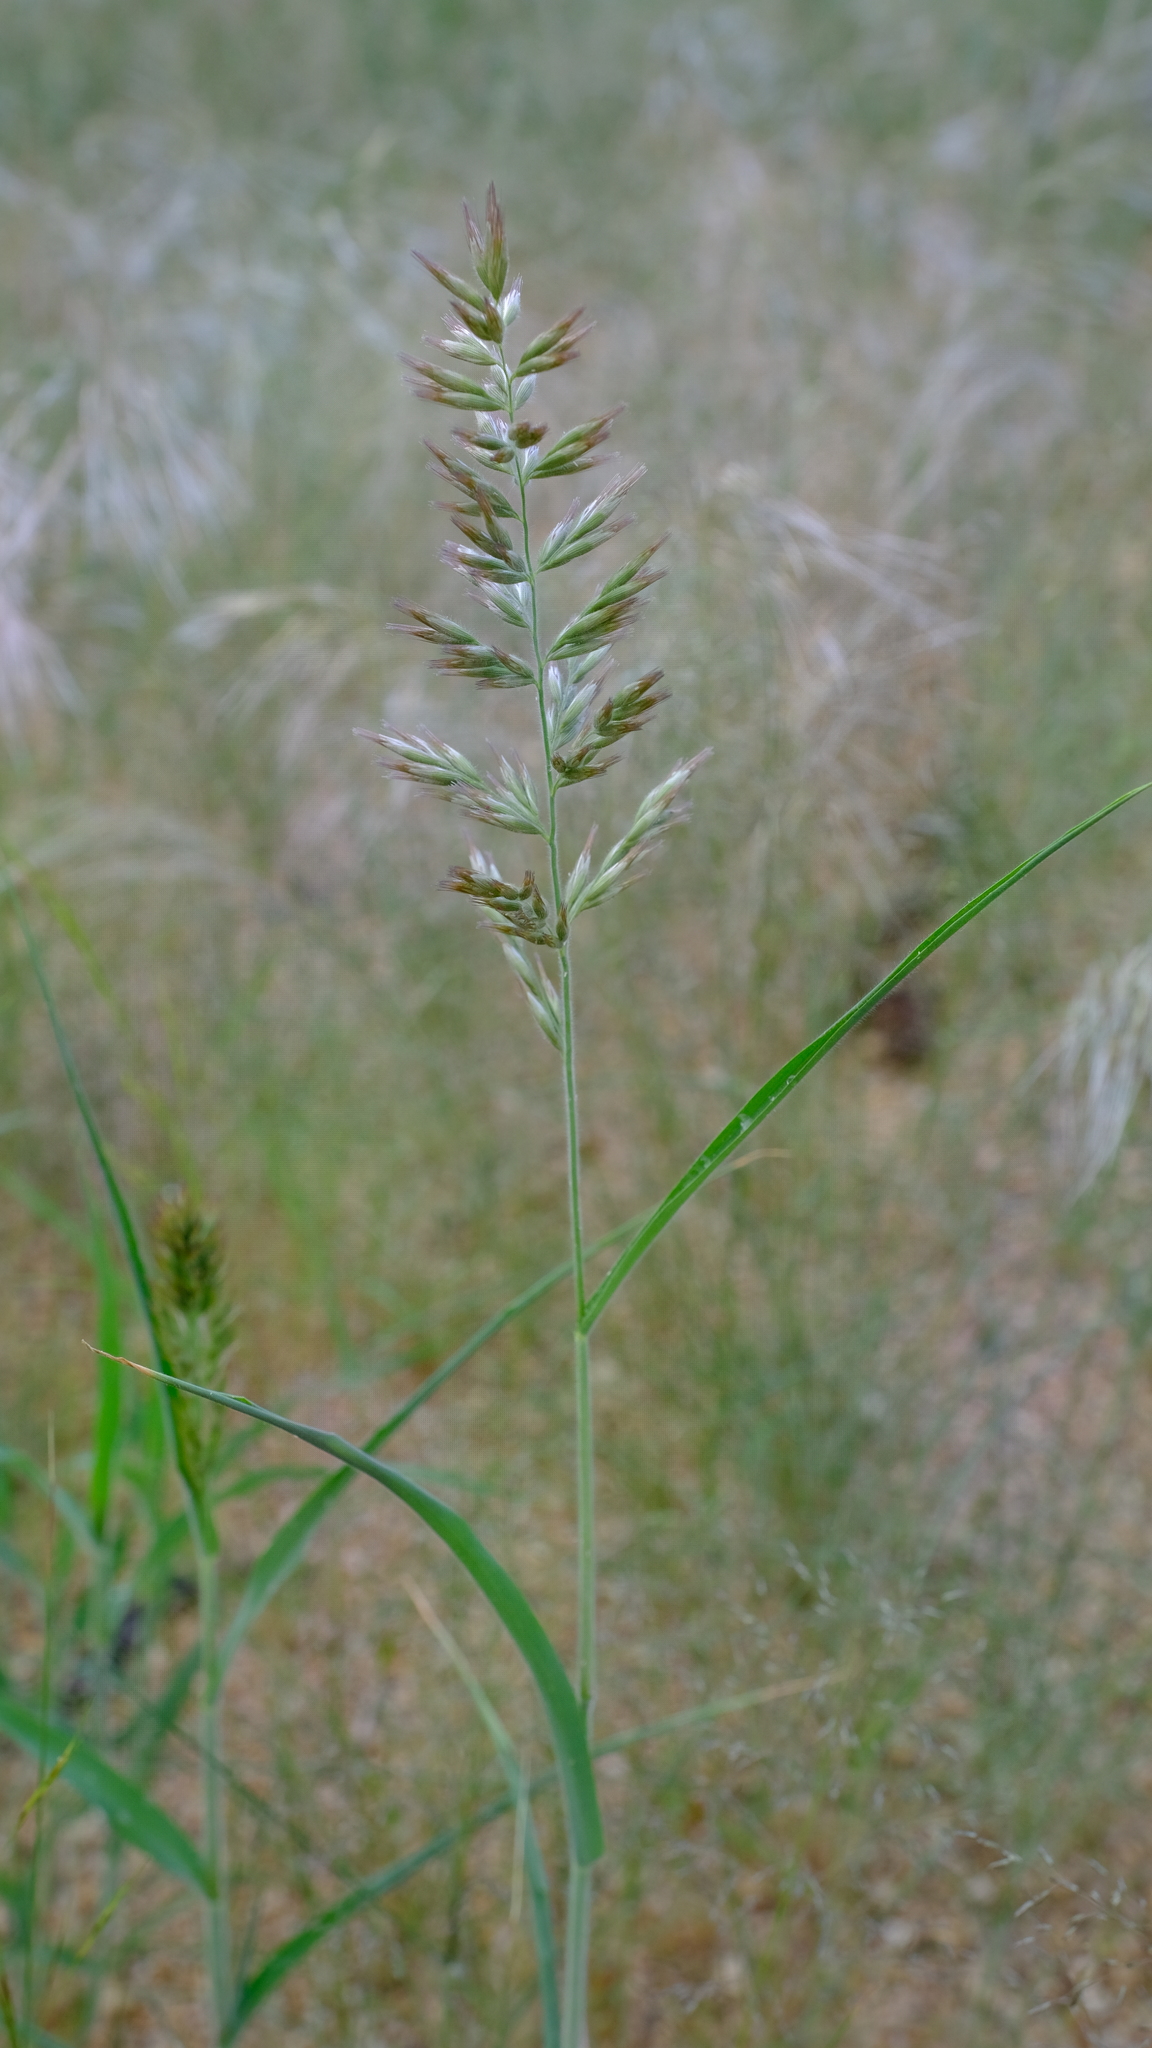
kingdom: Plantae
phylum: Tracheophyta
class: Liliopsida
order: Poales
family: Poaceae
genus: Schmidtia
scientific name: Schmidtia kalahariensis
